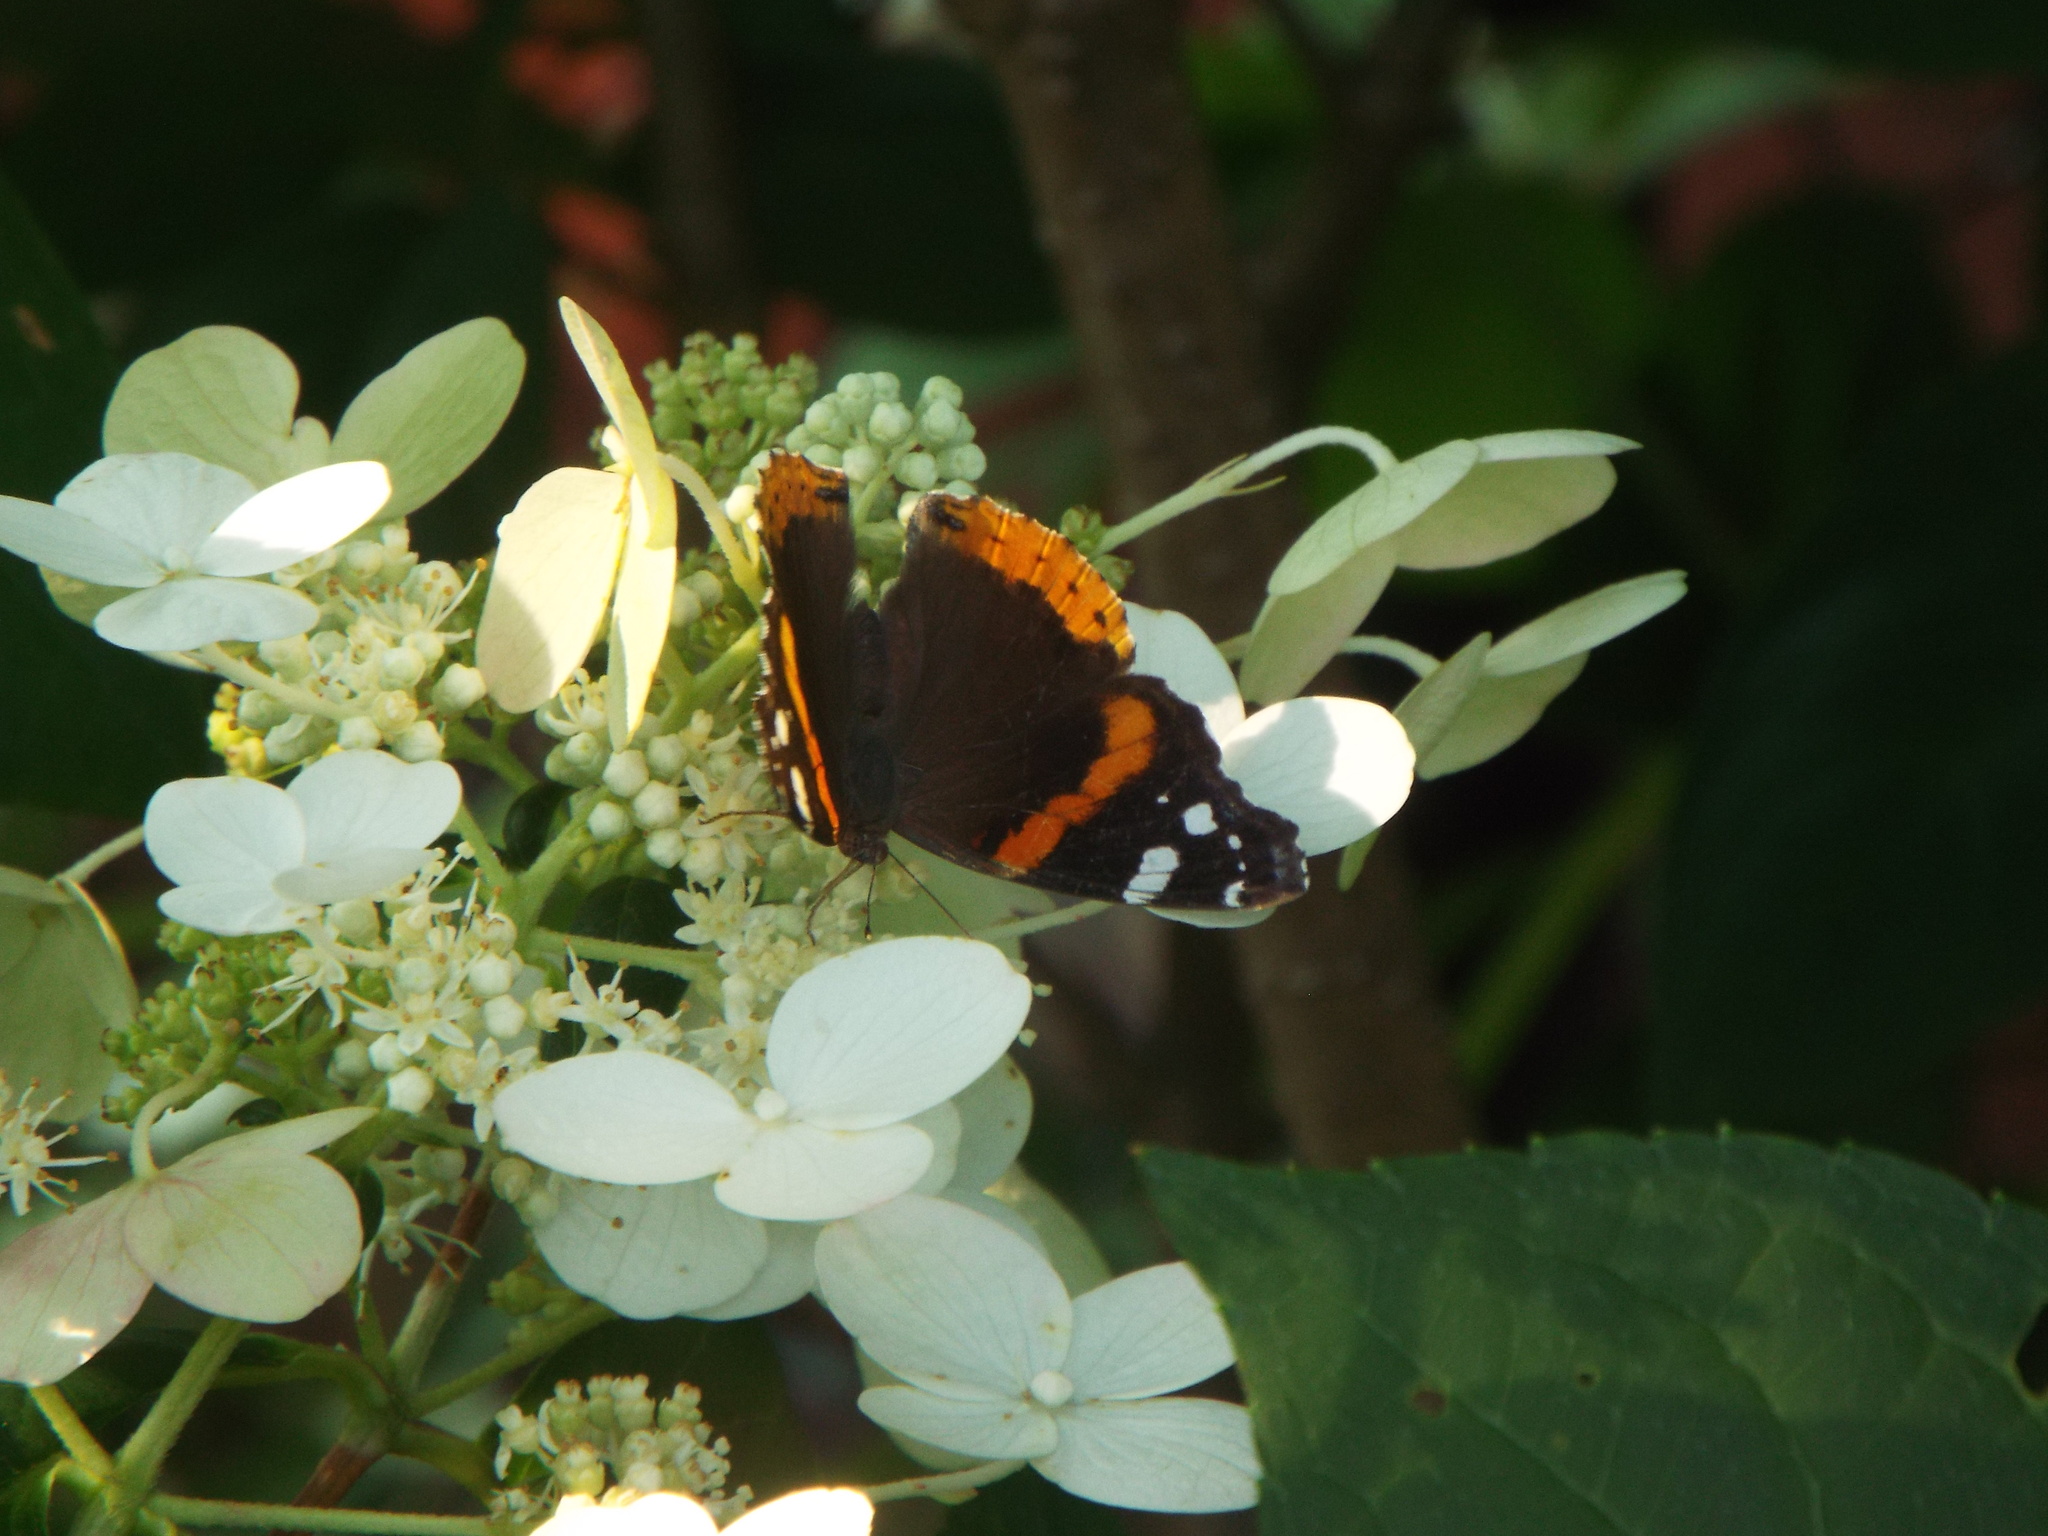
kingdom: Animalia
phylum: Arthropoda
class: Insecta
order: Lepidoptera
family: Nymphalidae
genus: Vanessa
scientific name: Vanessa atalanta
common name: Red admiral
